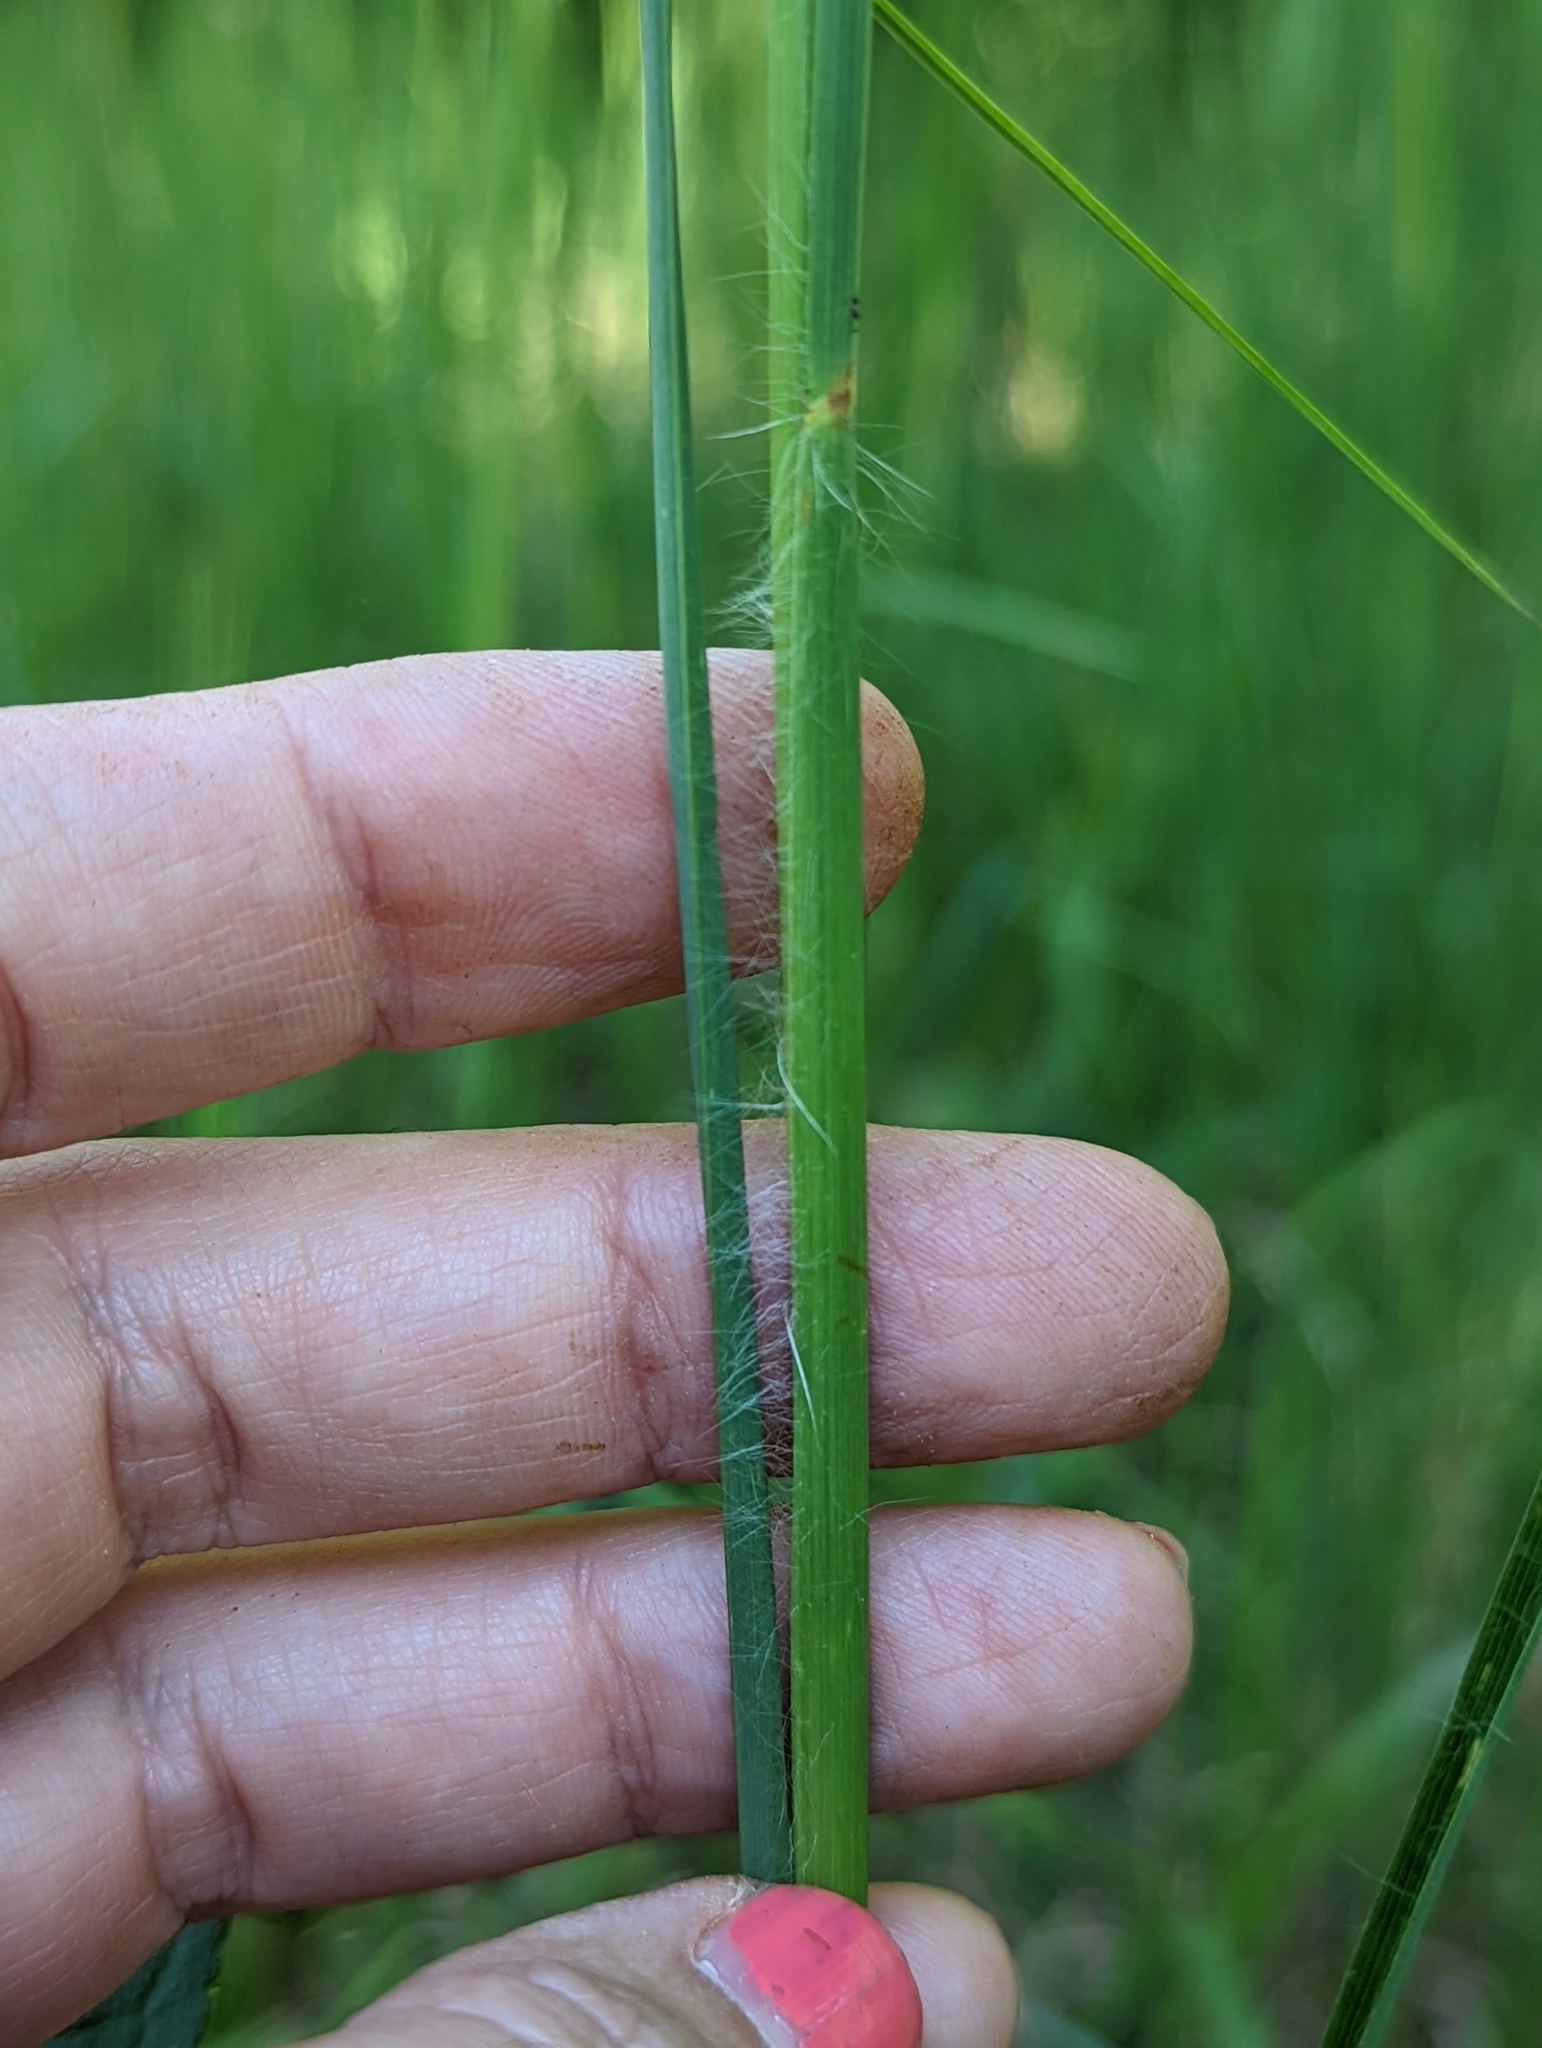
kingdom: Plantae
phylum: Tracheophyta
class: Liliopsida
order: Poales
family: Poaceae
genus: Andropogon
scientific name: Andropogon virginicus
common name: Broomsedge bluestem
